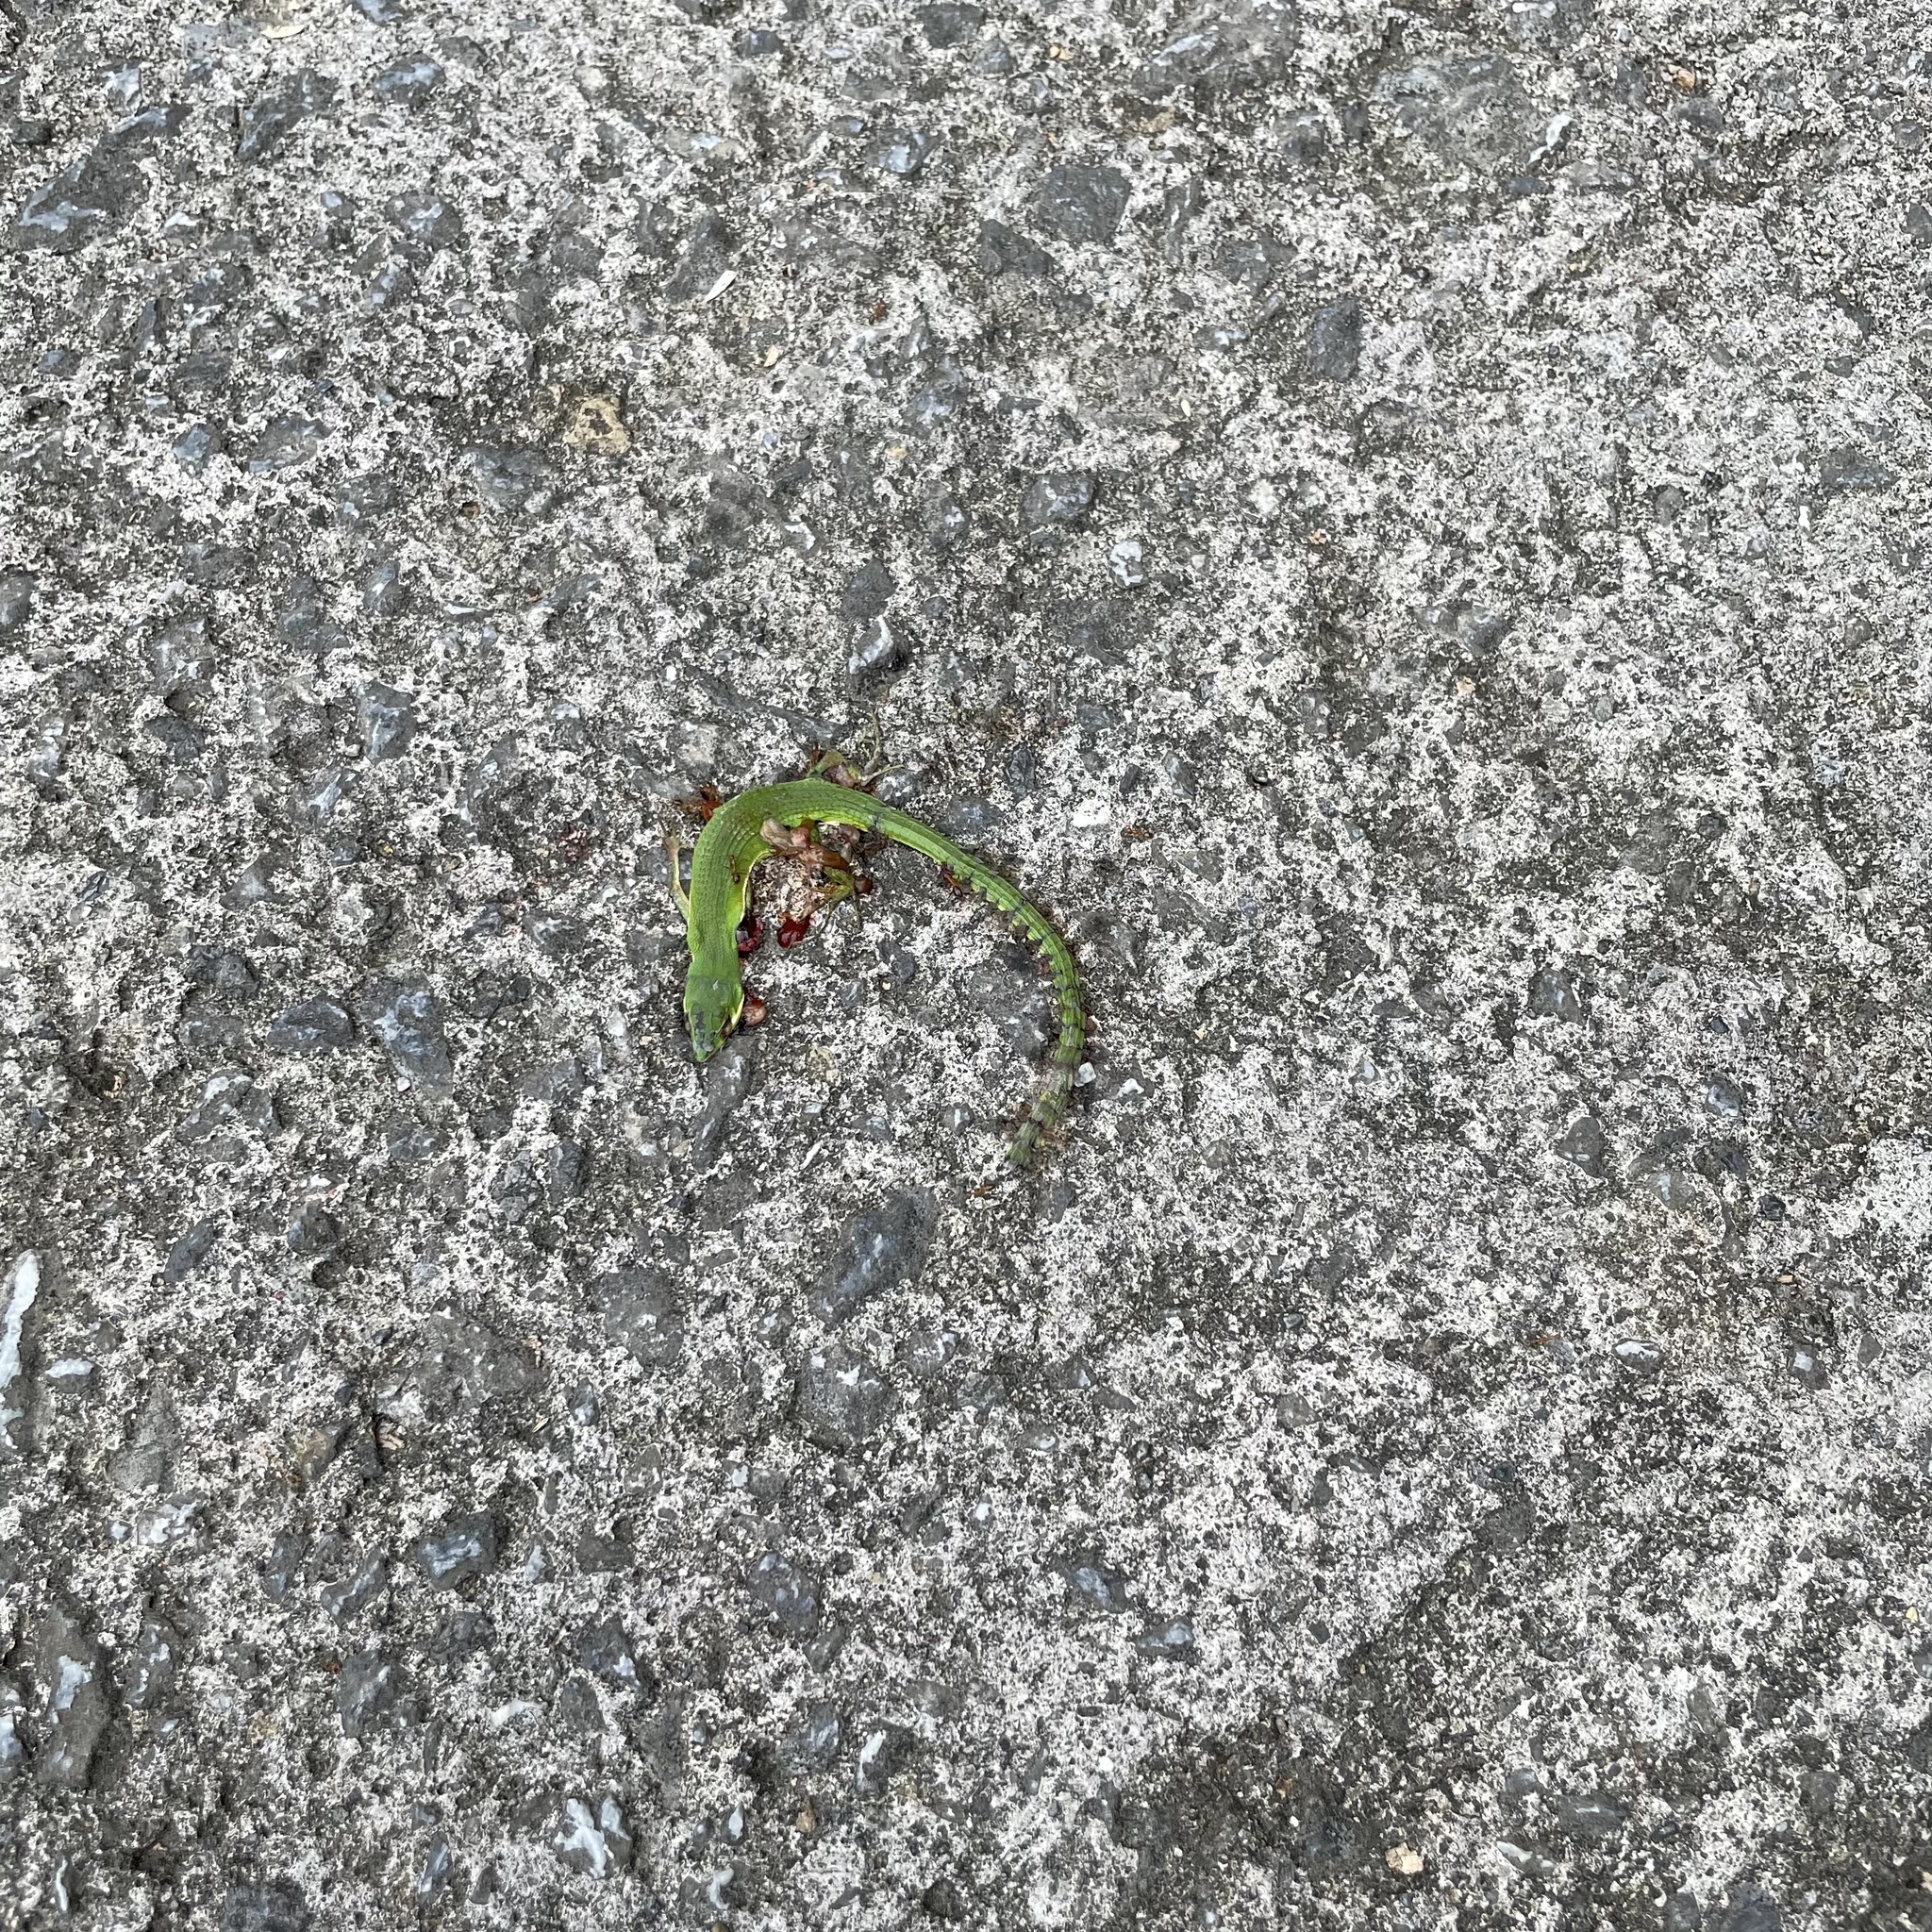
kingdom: Animalia
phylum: Chordata
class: Squamata
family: Lacertidae
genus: Takydromus
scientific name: Takydromus smaragdinus
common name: Green grass lizard
